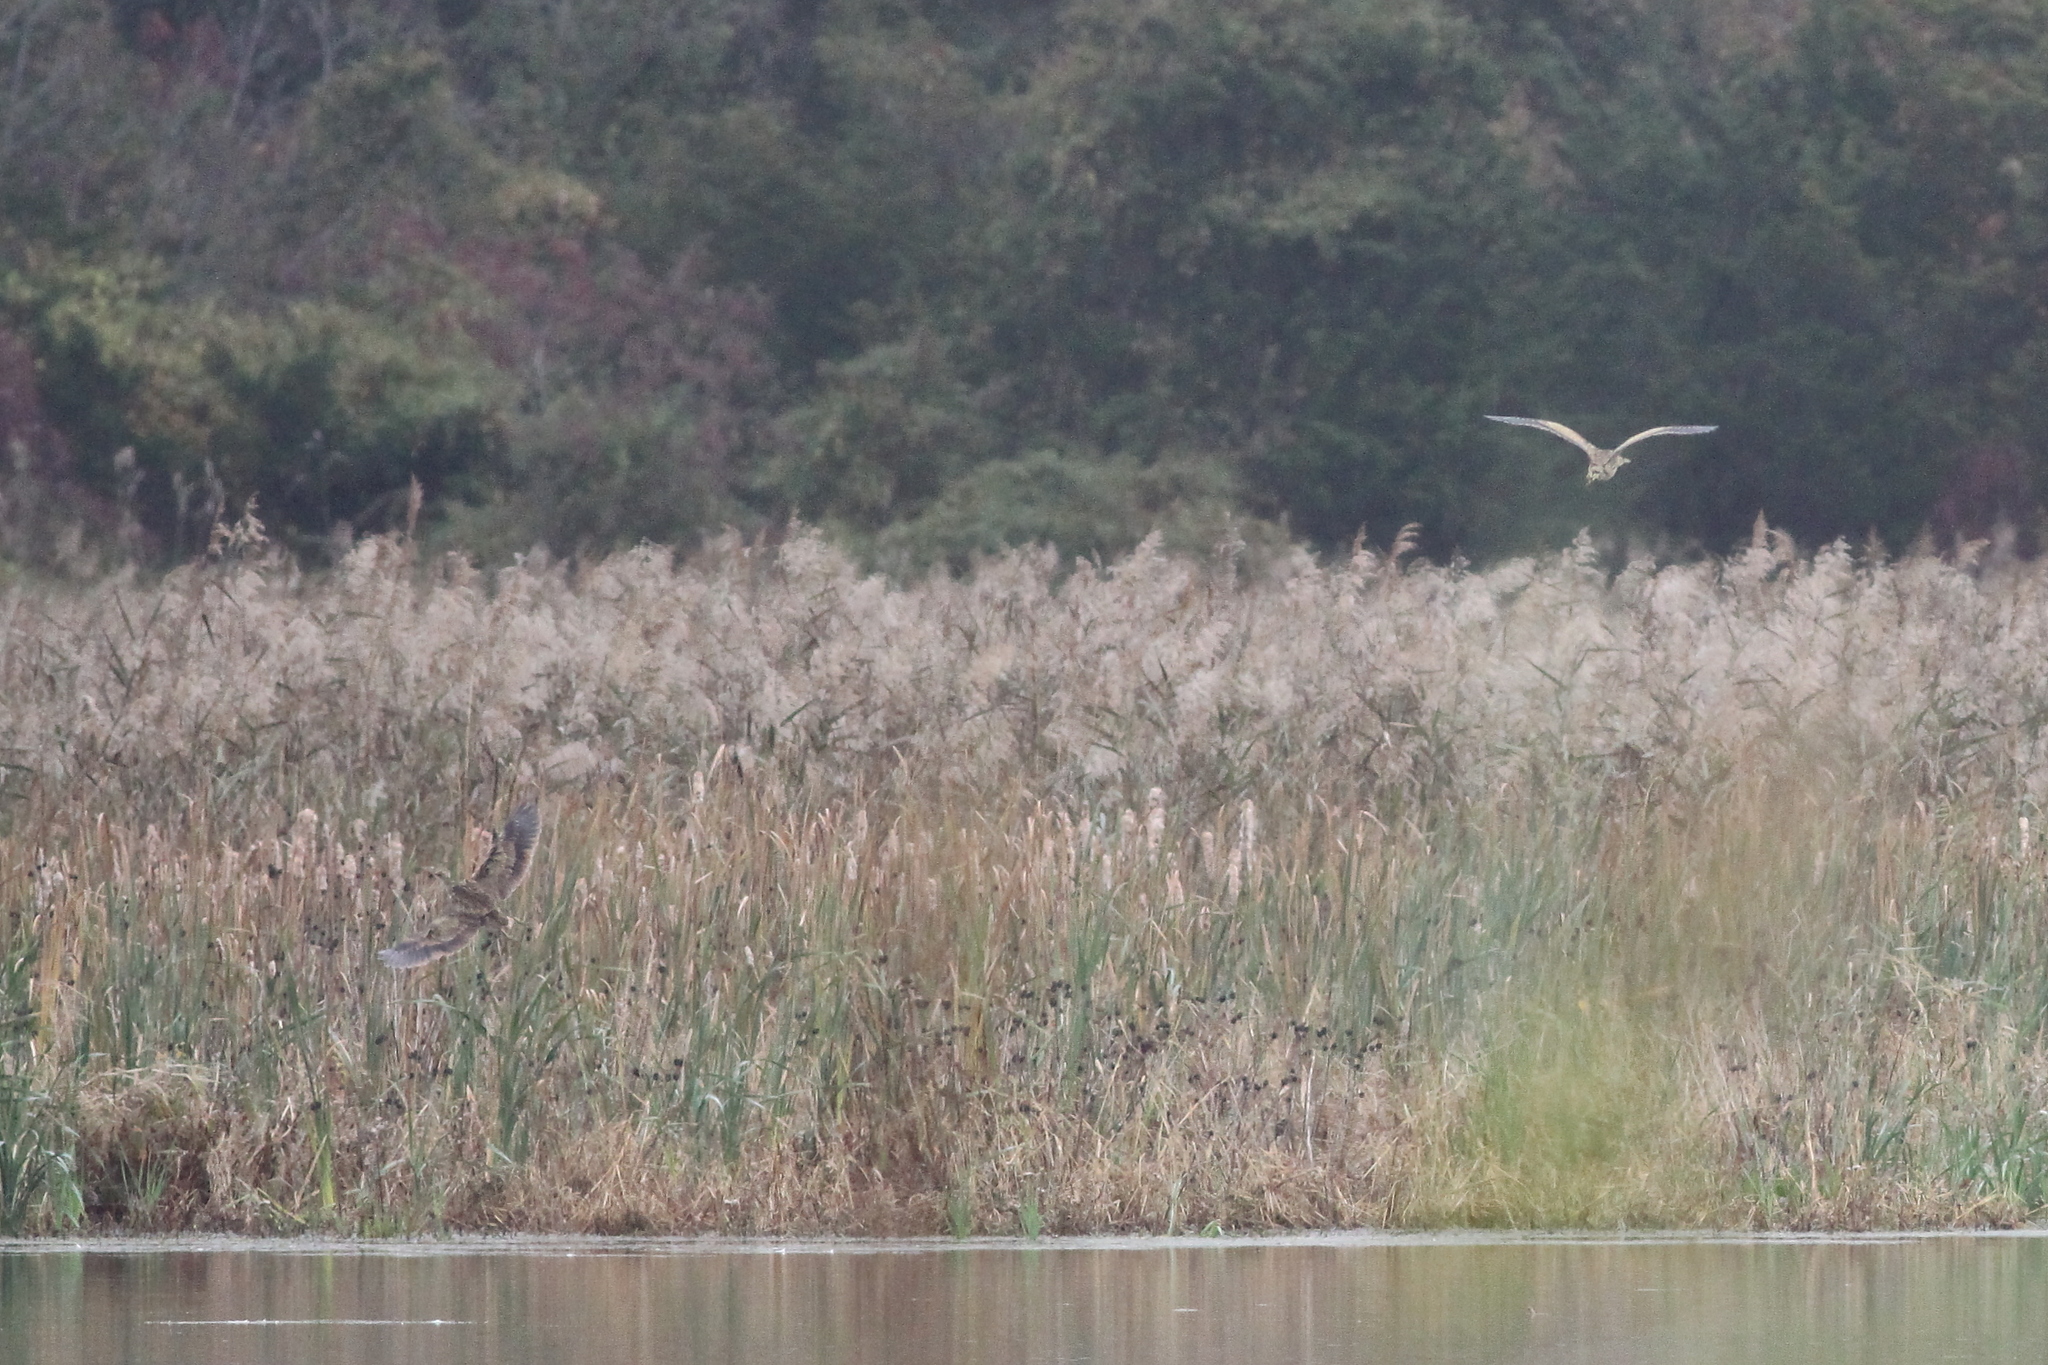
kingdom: Animalia
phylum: Chordata
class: Aves
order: Pelecaniformes
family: Ardeidae
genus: Botaurus
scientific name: Botaurus lentiginosus
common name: American bittern
